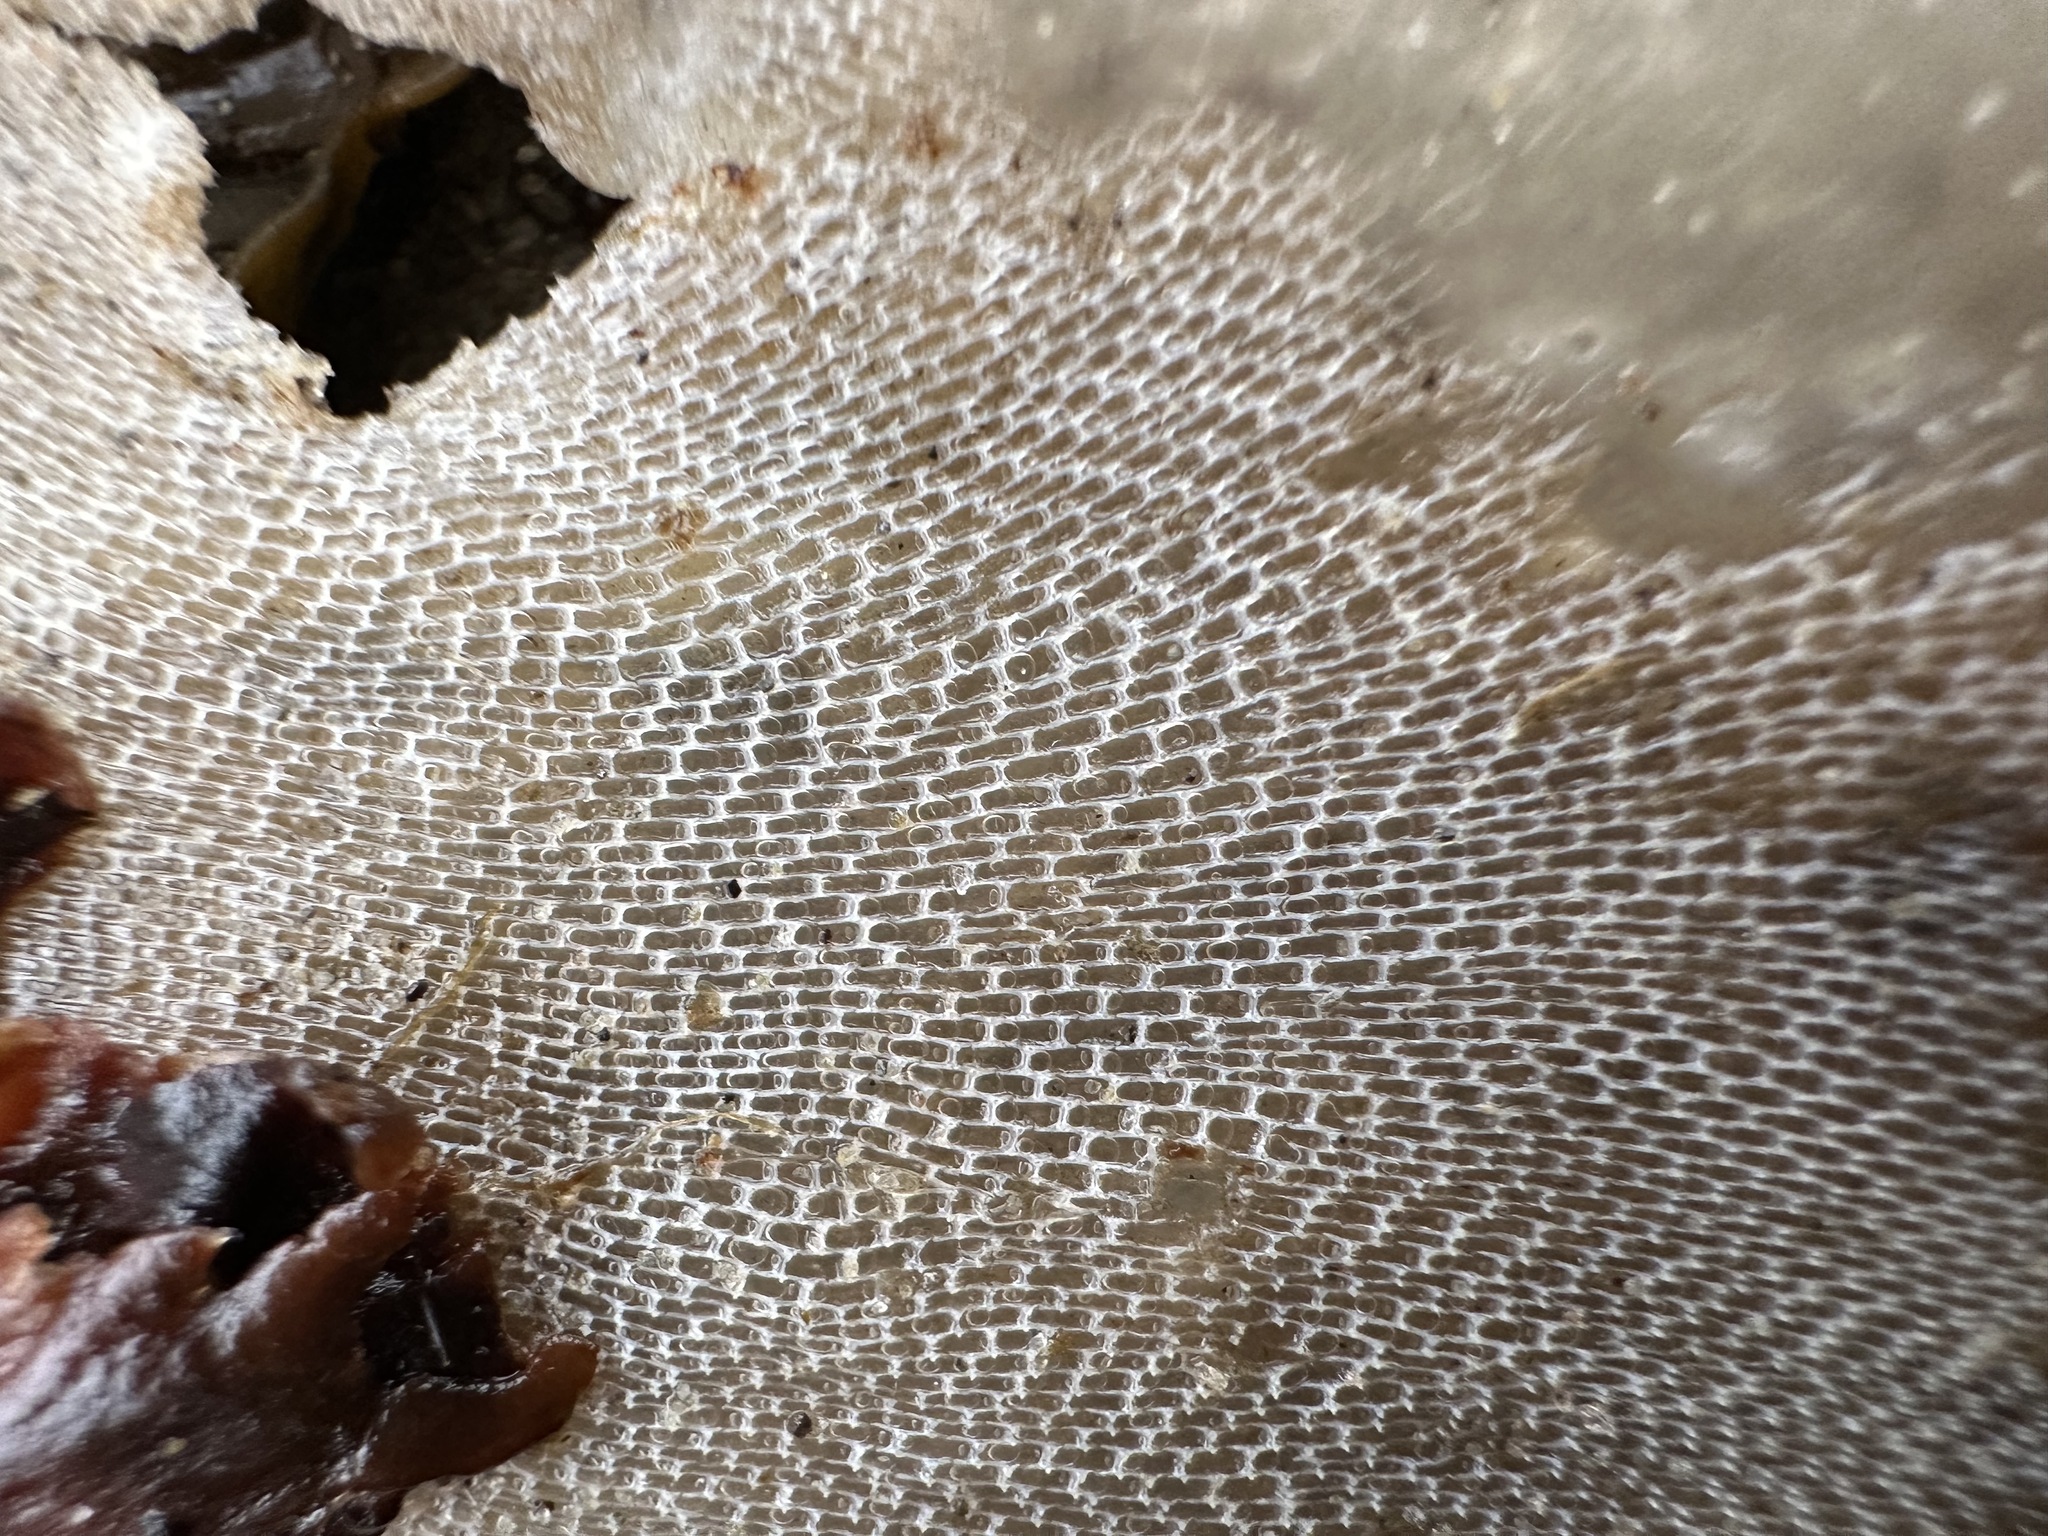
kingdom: Animalia
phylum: Bryozoa
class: Gymnolaemata
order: Cheilostomatida
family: Membraniporidae
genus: Membranipora
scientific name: Membranipora membranacea
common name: Sea mat
